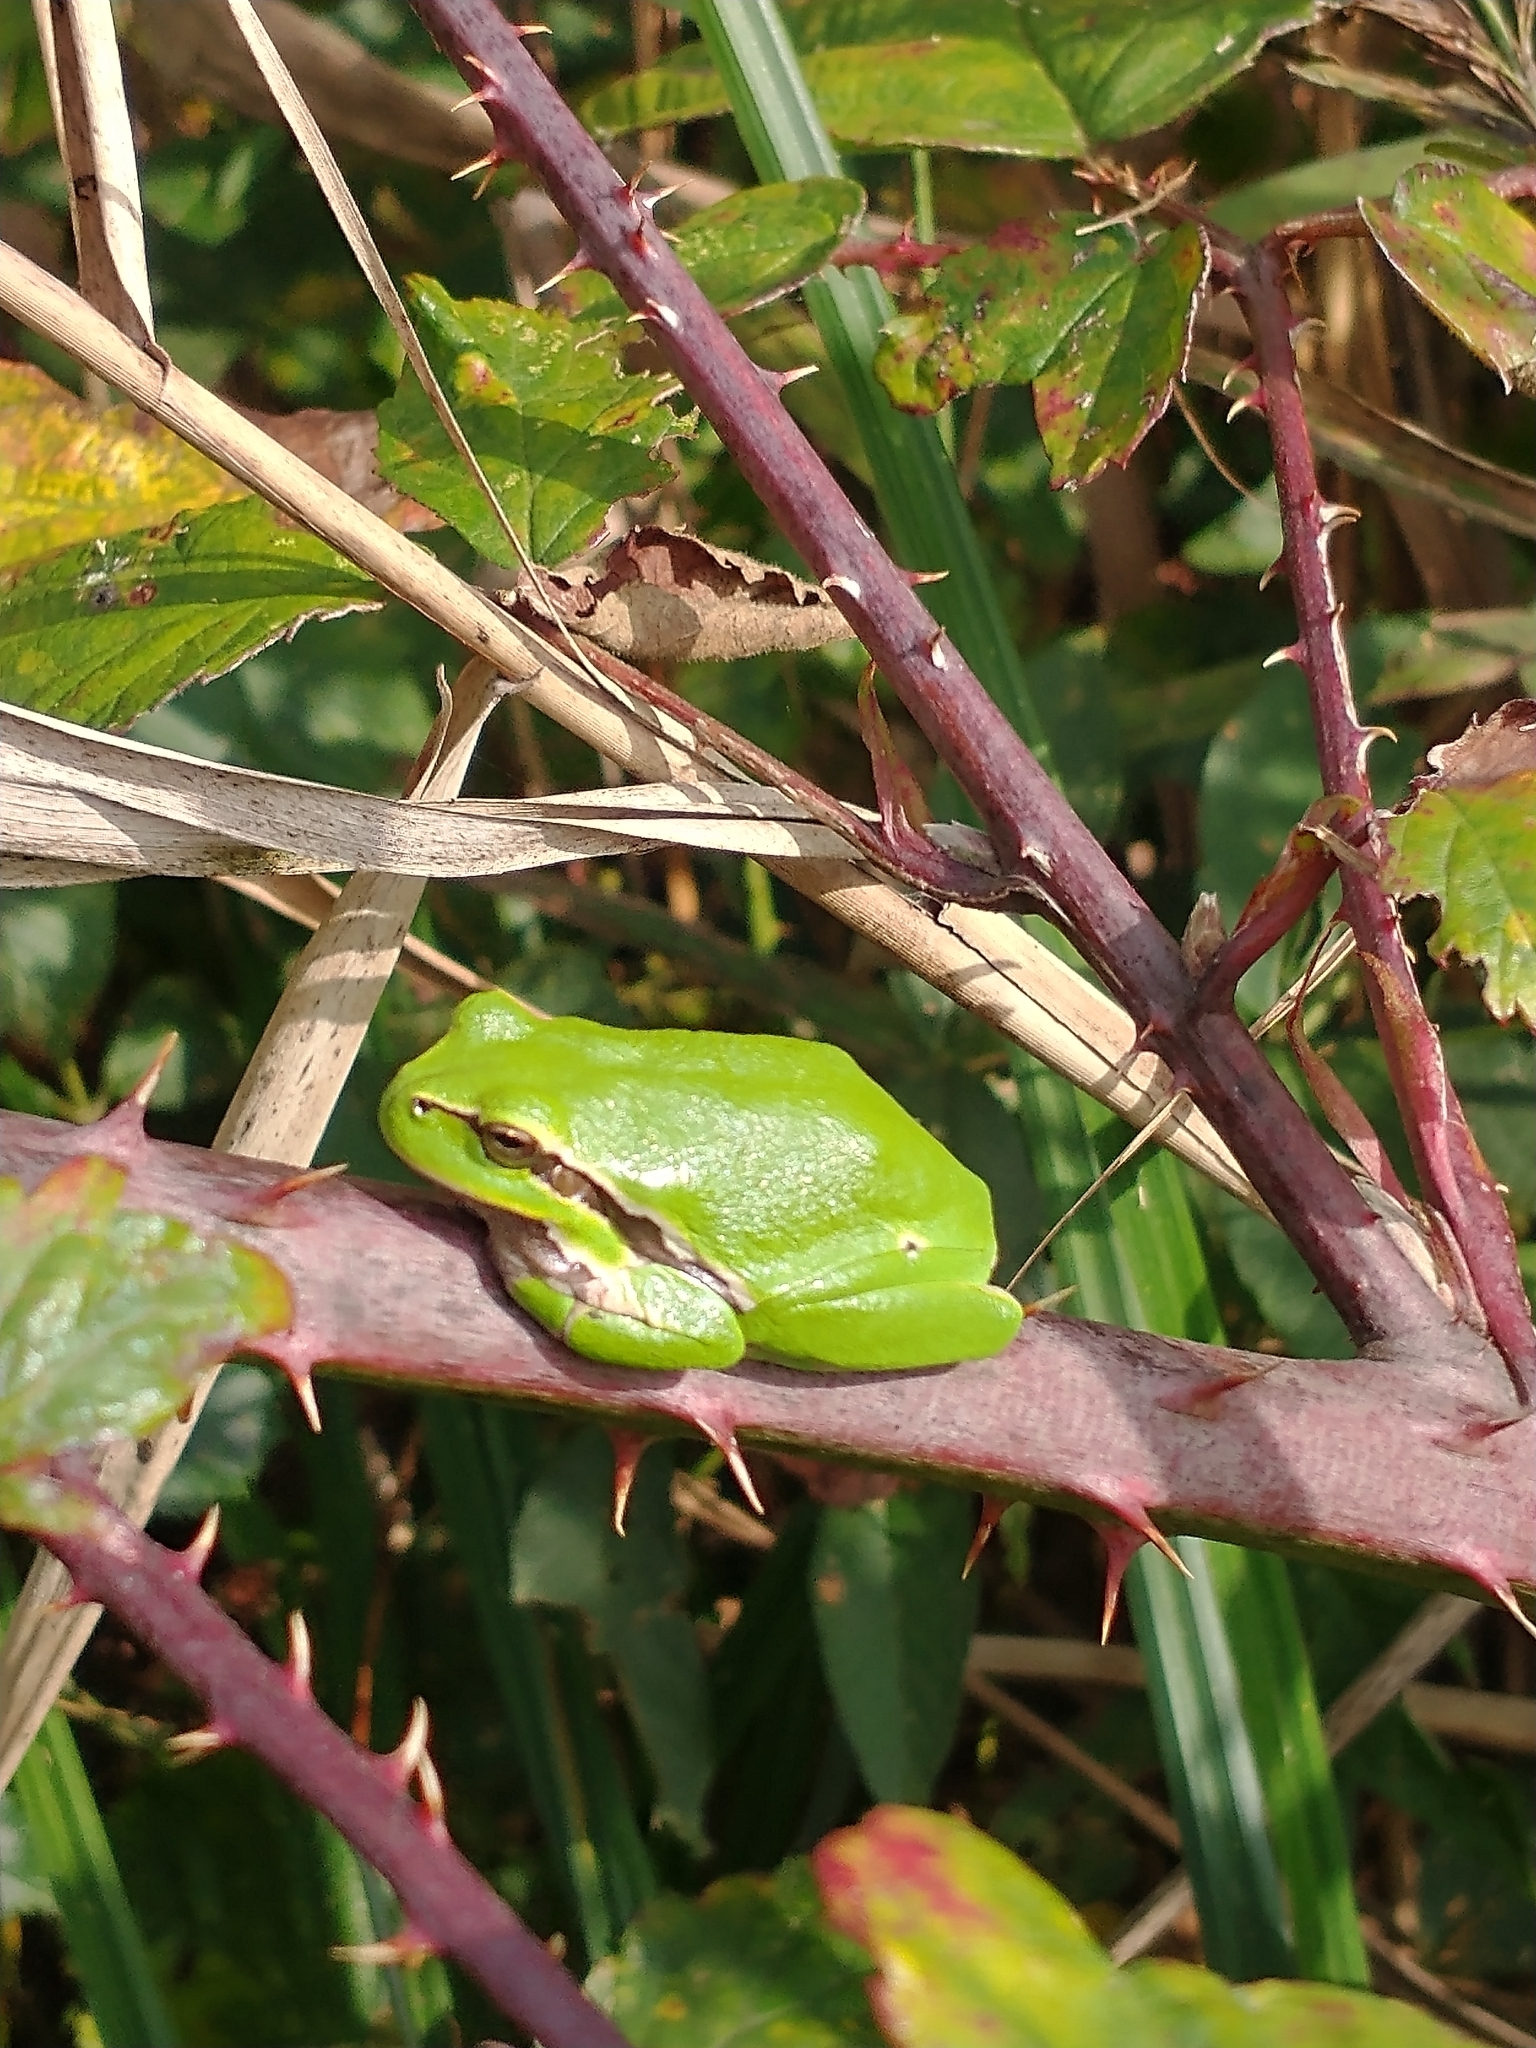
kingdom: Animalia
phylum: Chordata
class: Amphibia
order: Anura
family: Hylidae
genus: Hyla
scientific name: Hyla arborea
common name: Common tree frog
